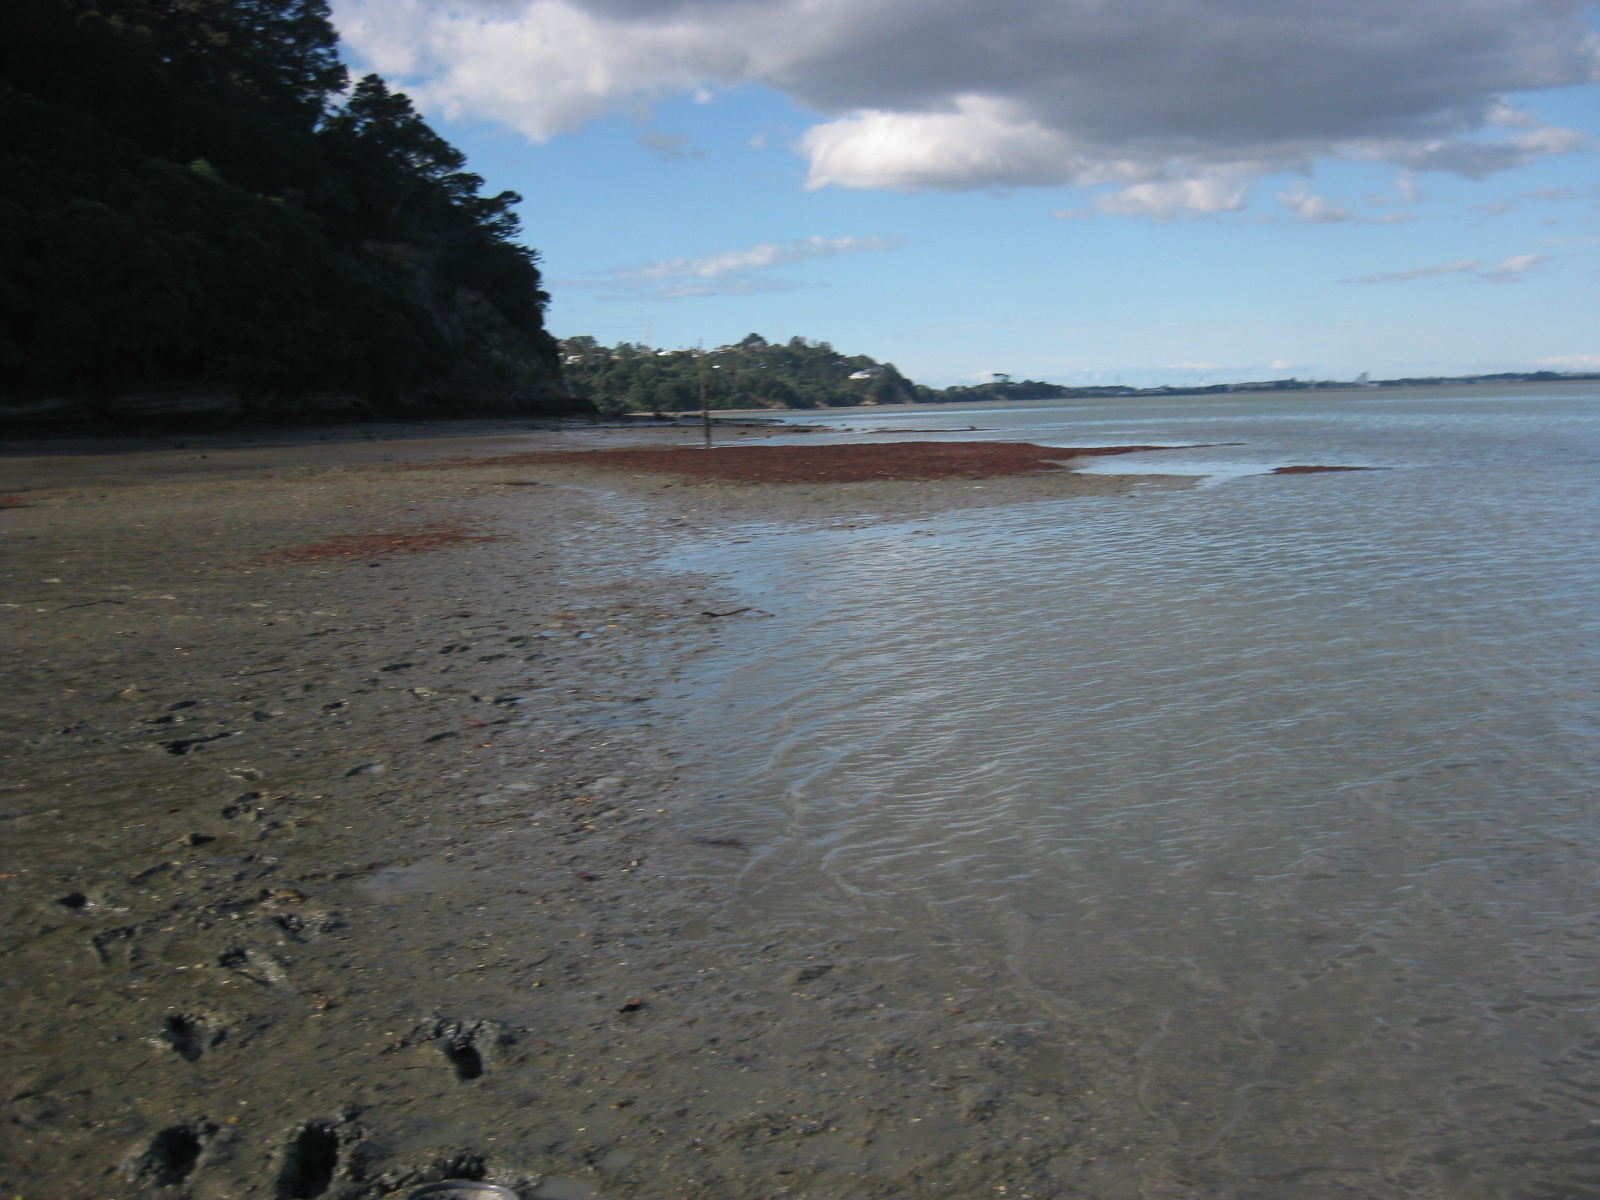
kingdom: Animalia
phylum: Mollusca
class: Bivalvia
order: Pectinida
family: Pectinidae
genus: Pecten
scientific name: Pecten novaezelandiae
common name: New zealand scallop
